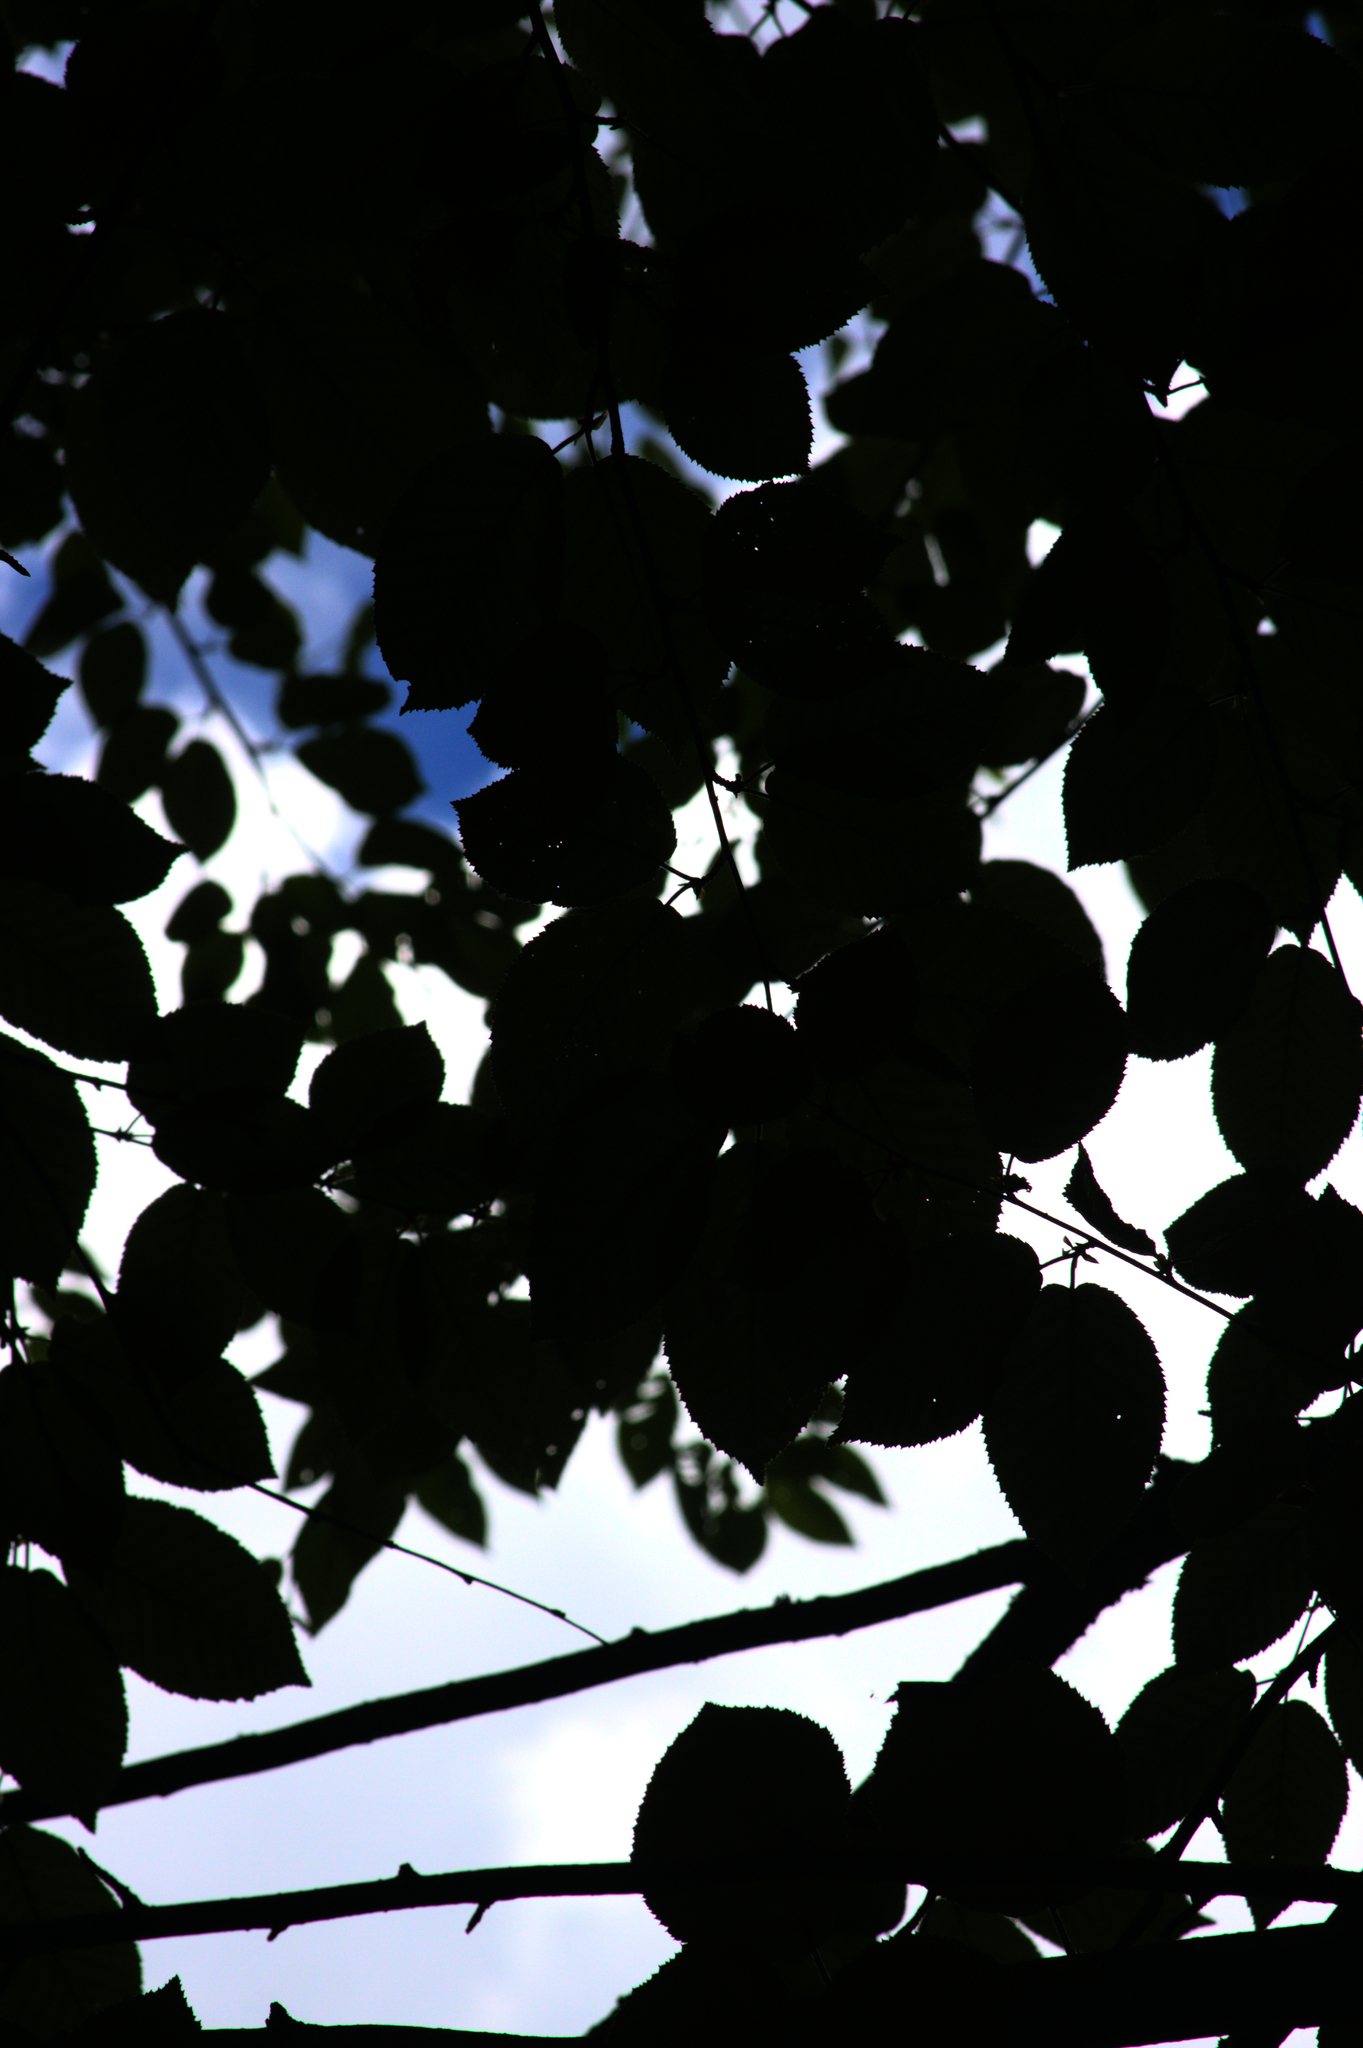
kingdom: Plantae
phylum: Tracheophyta
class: Magnoliopsida
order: Fagales
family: Betulaceae
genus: Betula
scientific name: Betula alleghaniensis
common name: Yellow birch
